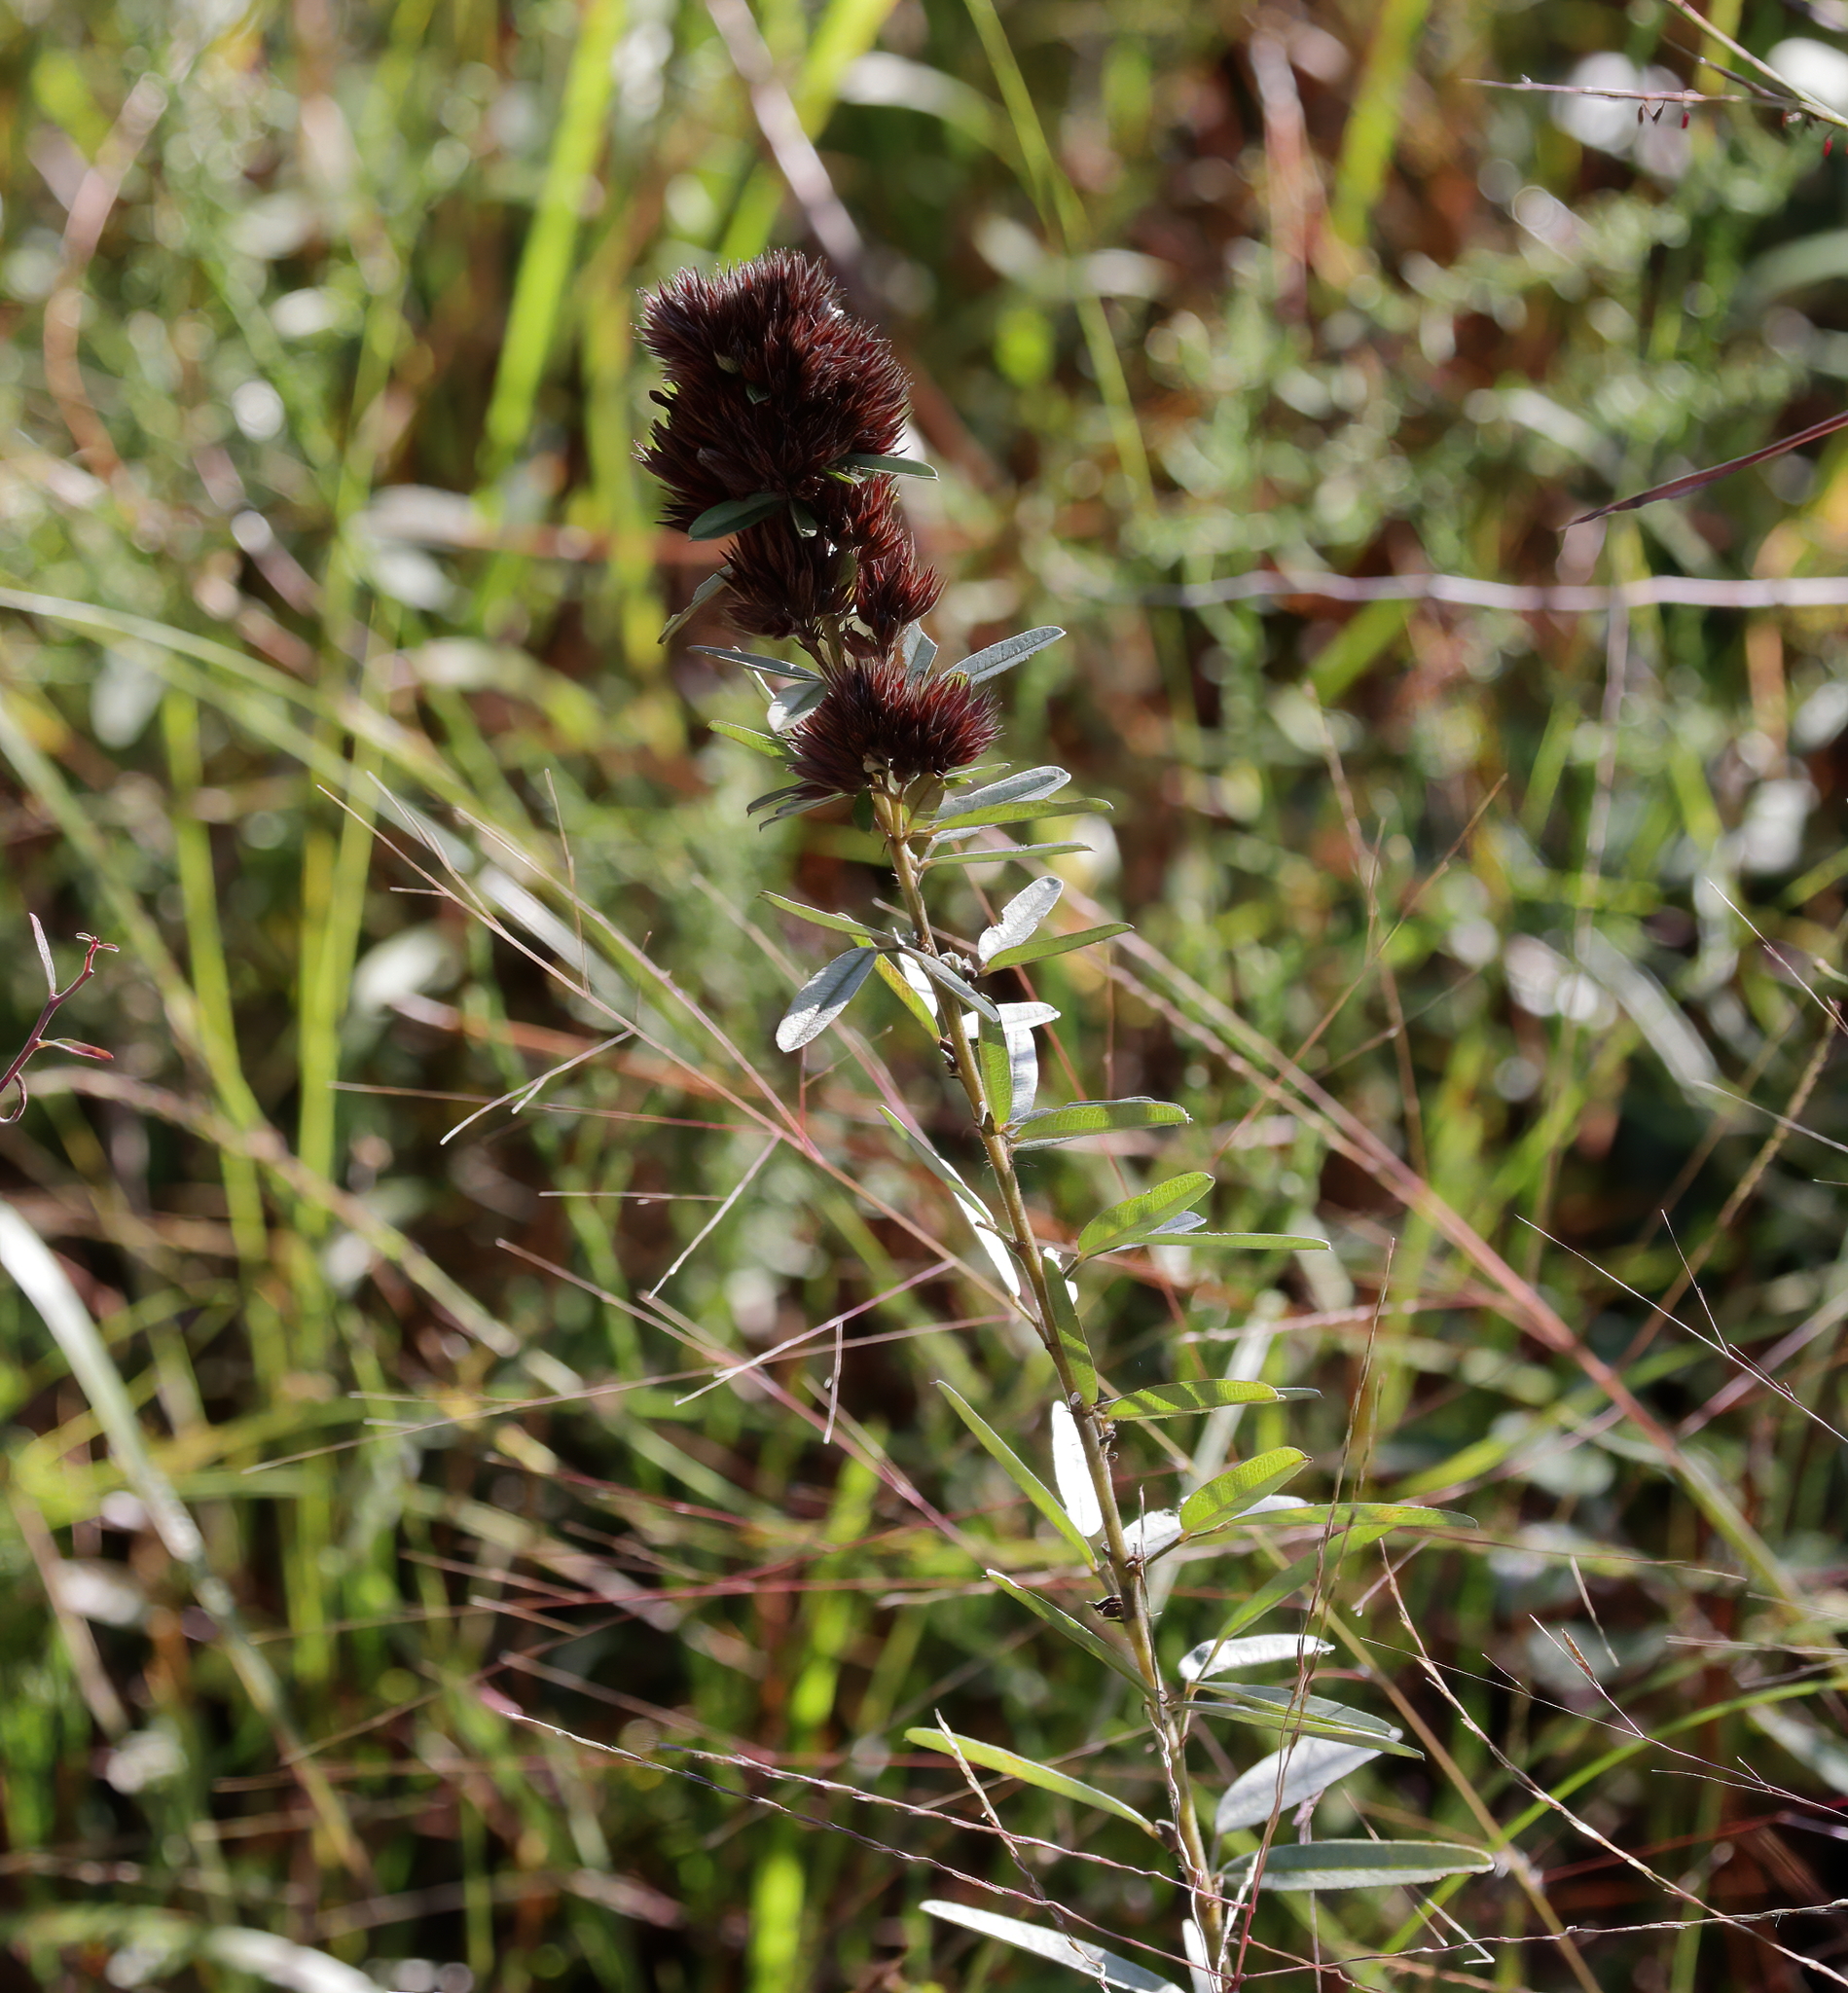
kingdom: Plantae
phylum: Tracheophyta
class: Magnoliopsida
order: Fabales
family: Fabaceae
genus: Lespedeza
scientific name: Lespedeza capitata
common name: Dusty clover
